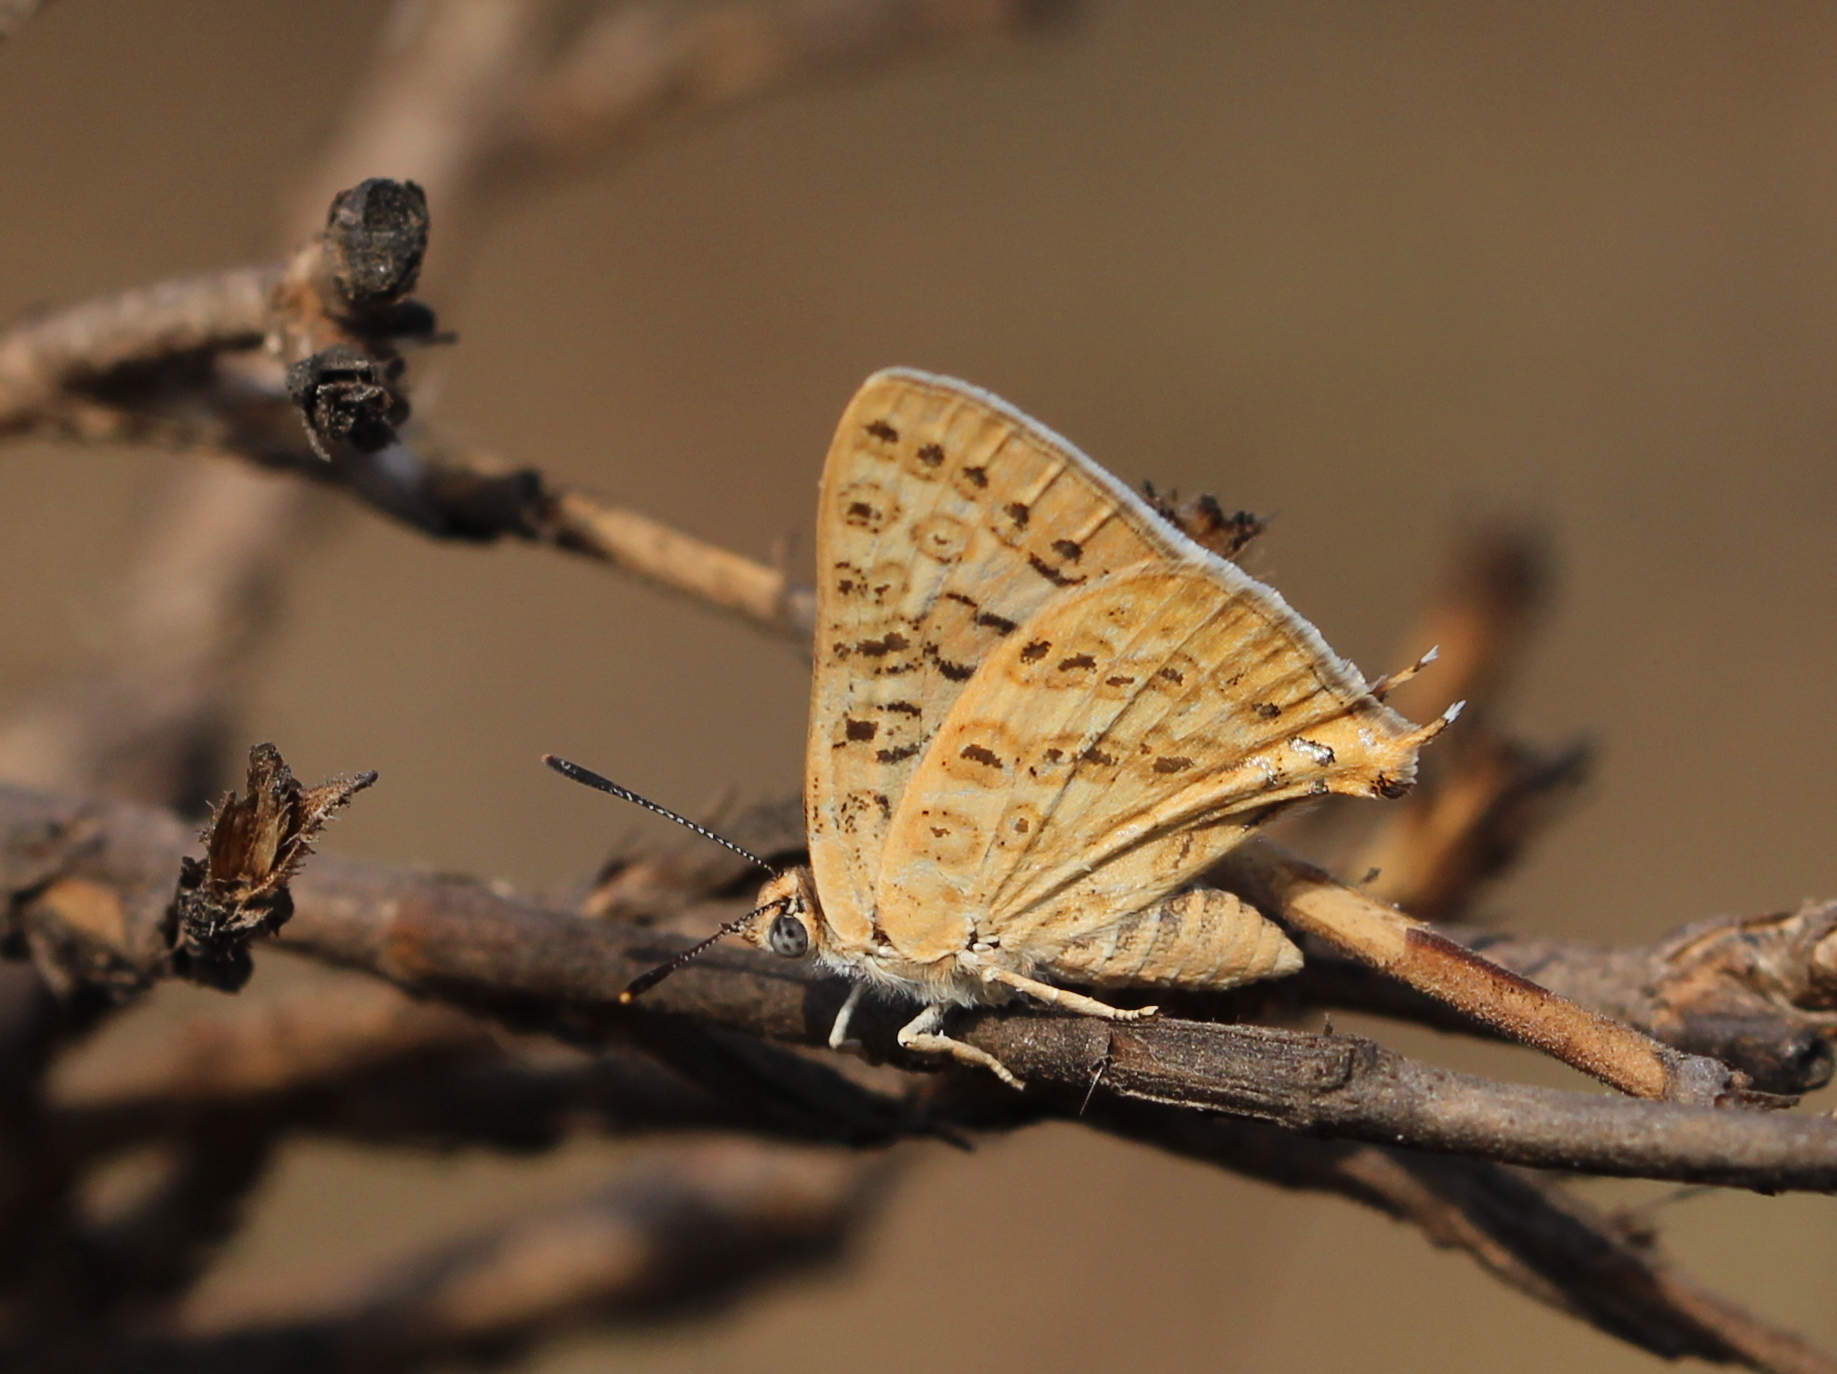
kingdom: Animalia
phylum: Arthropoda
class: Insecta
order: Lepidoptera
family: Lycaenidae
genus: Aphnaeus
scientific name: Aphnaeus lilacinus
